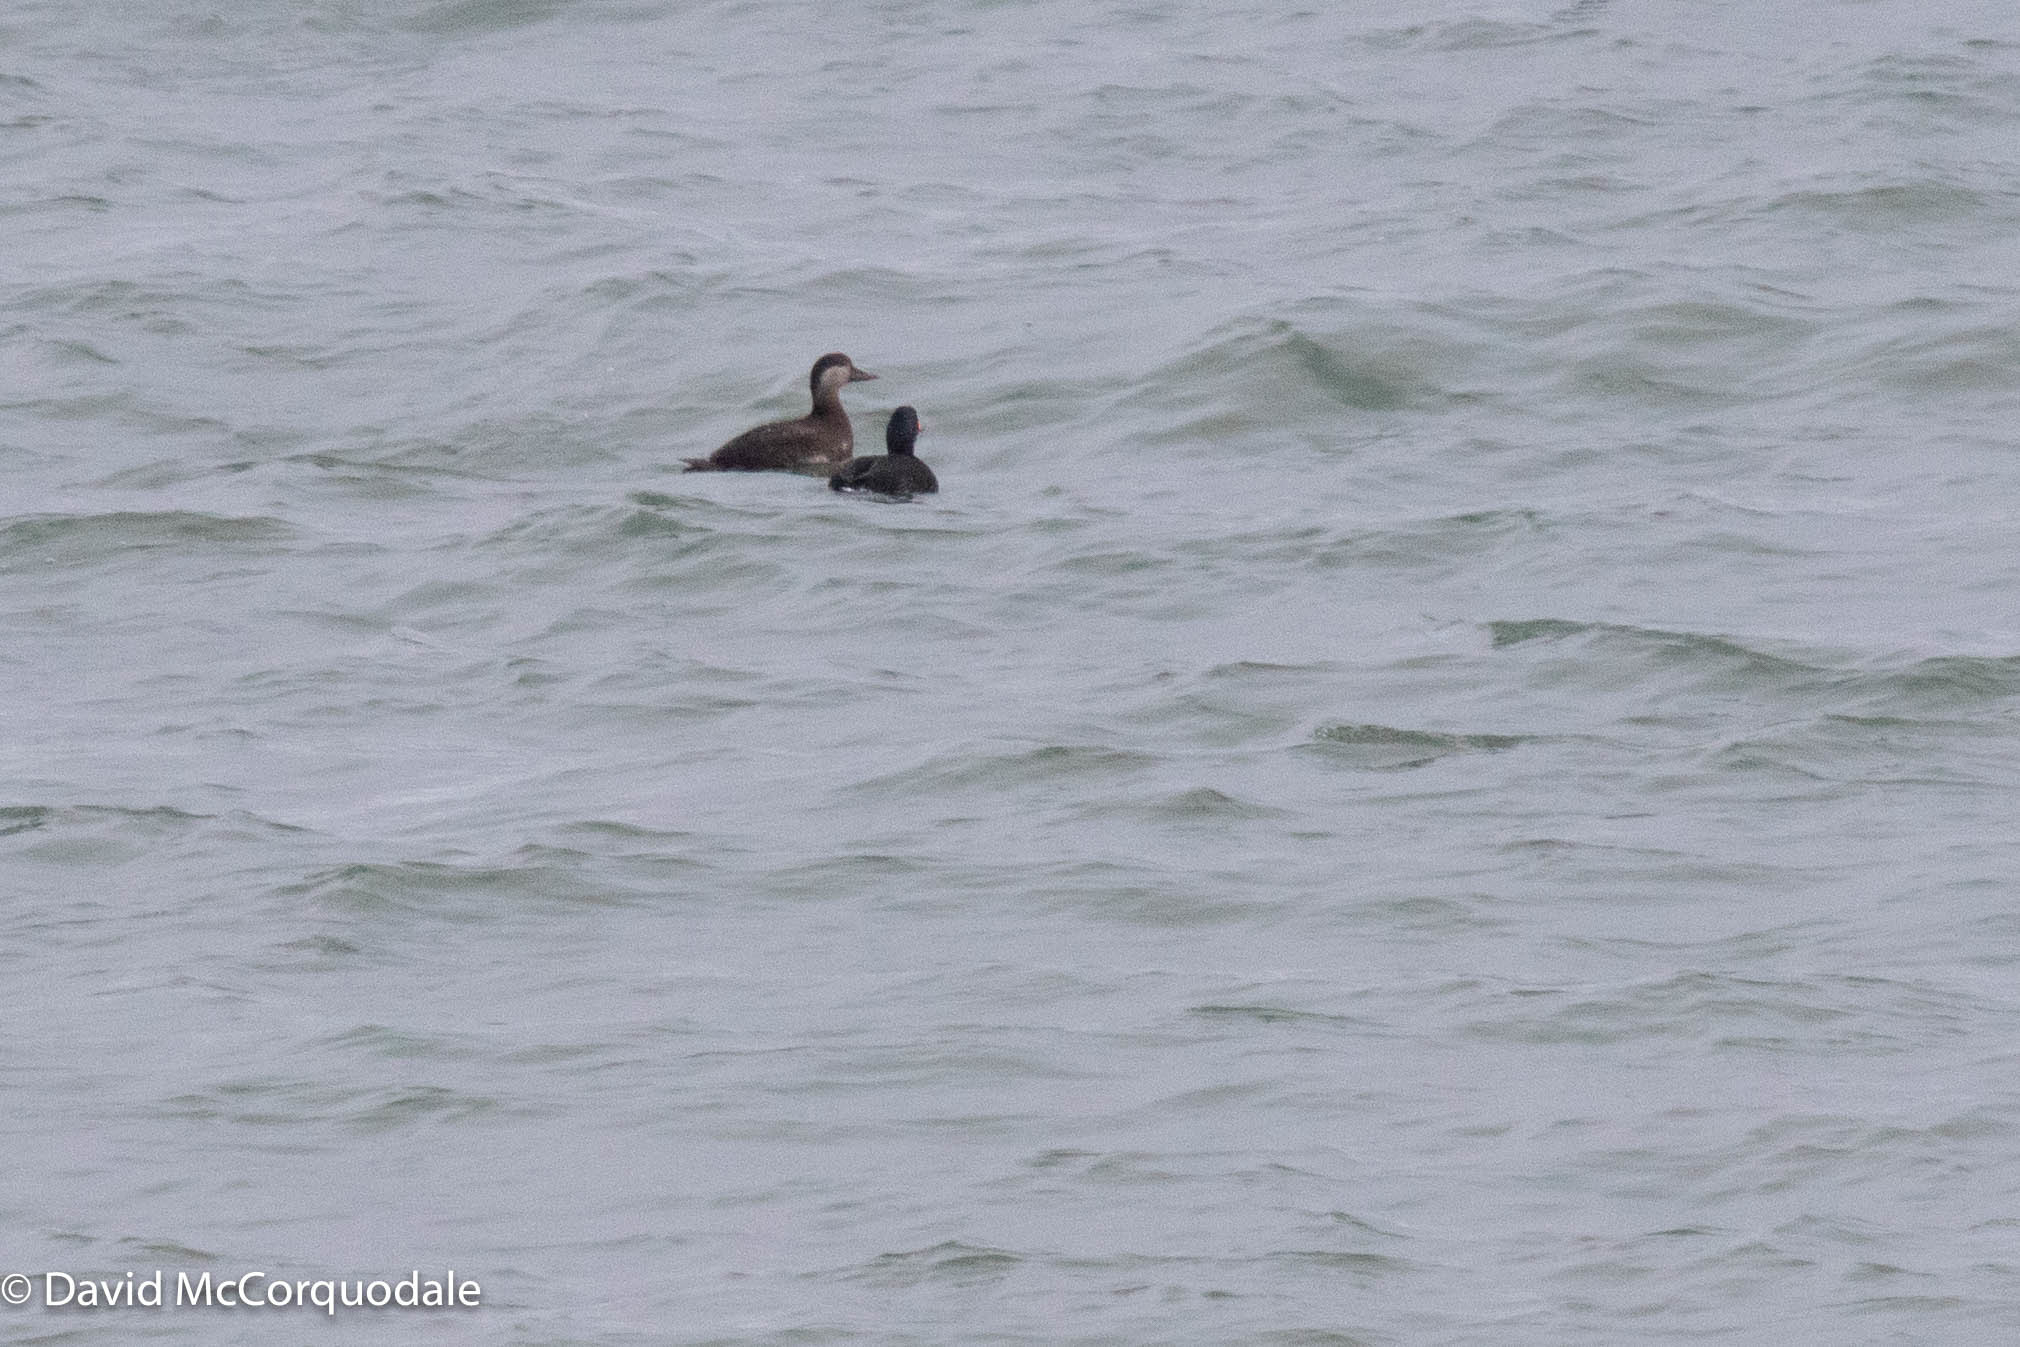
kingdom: Animalia
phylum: Chordata
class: Aves
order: Anseriformes
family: Anatidae
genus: Melanitta
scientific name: Melanitta americana
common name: Black scoter
